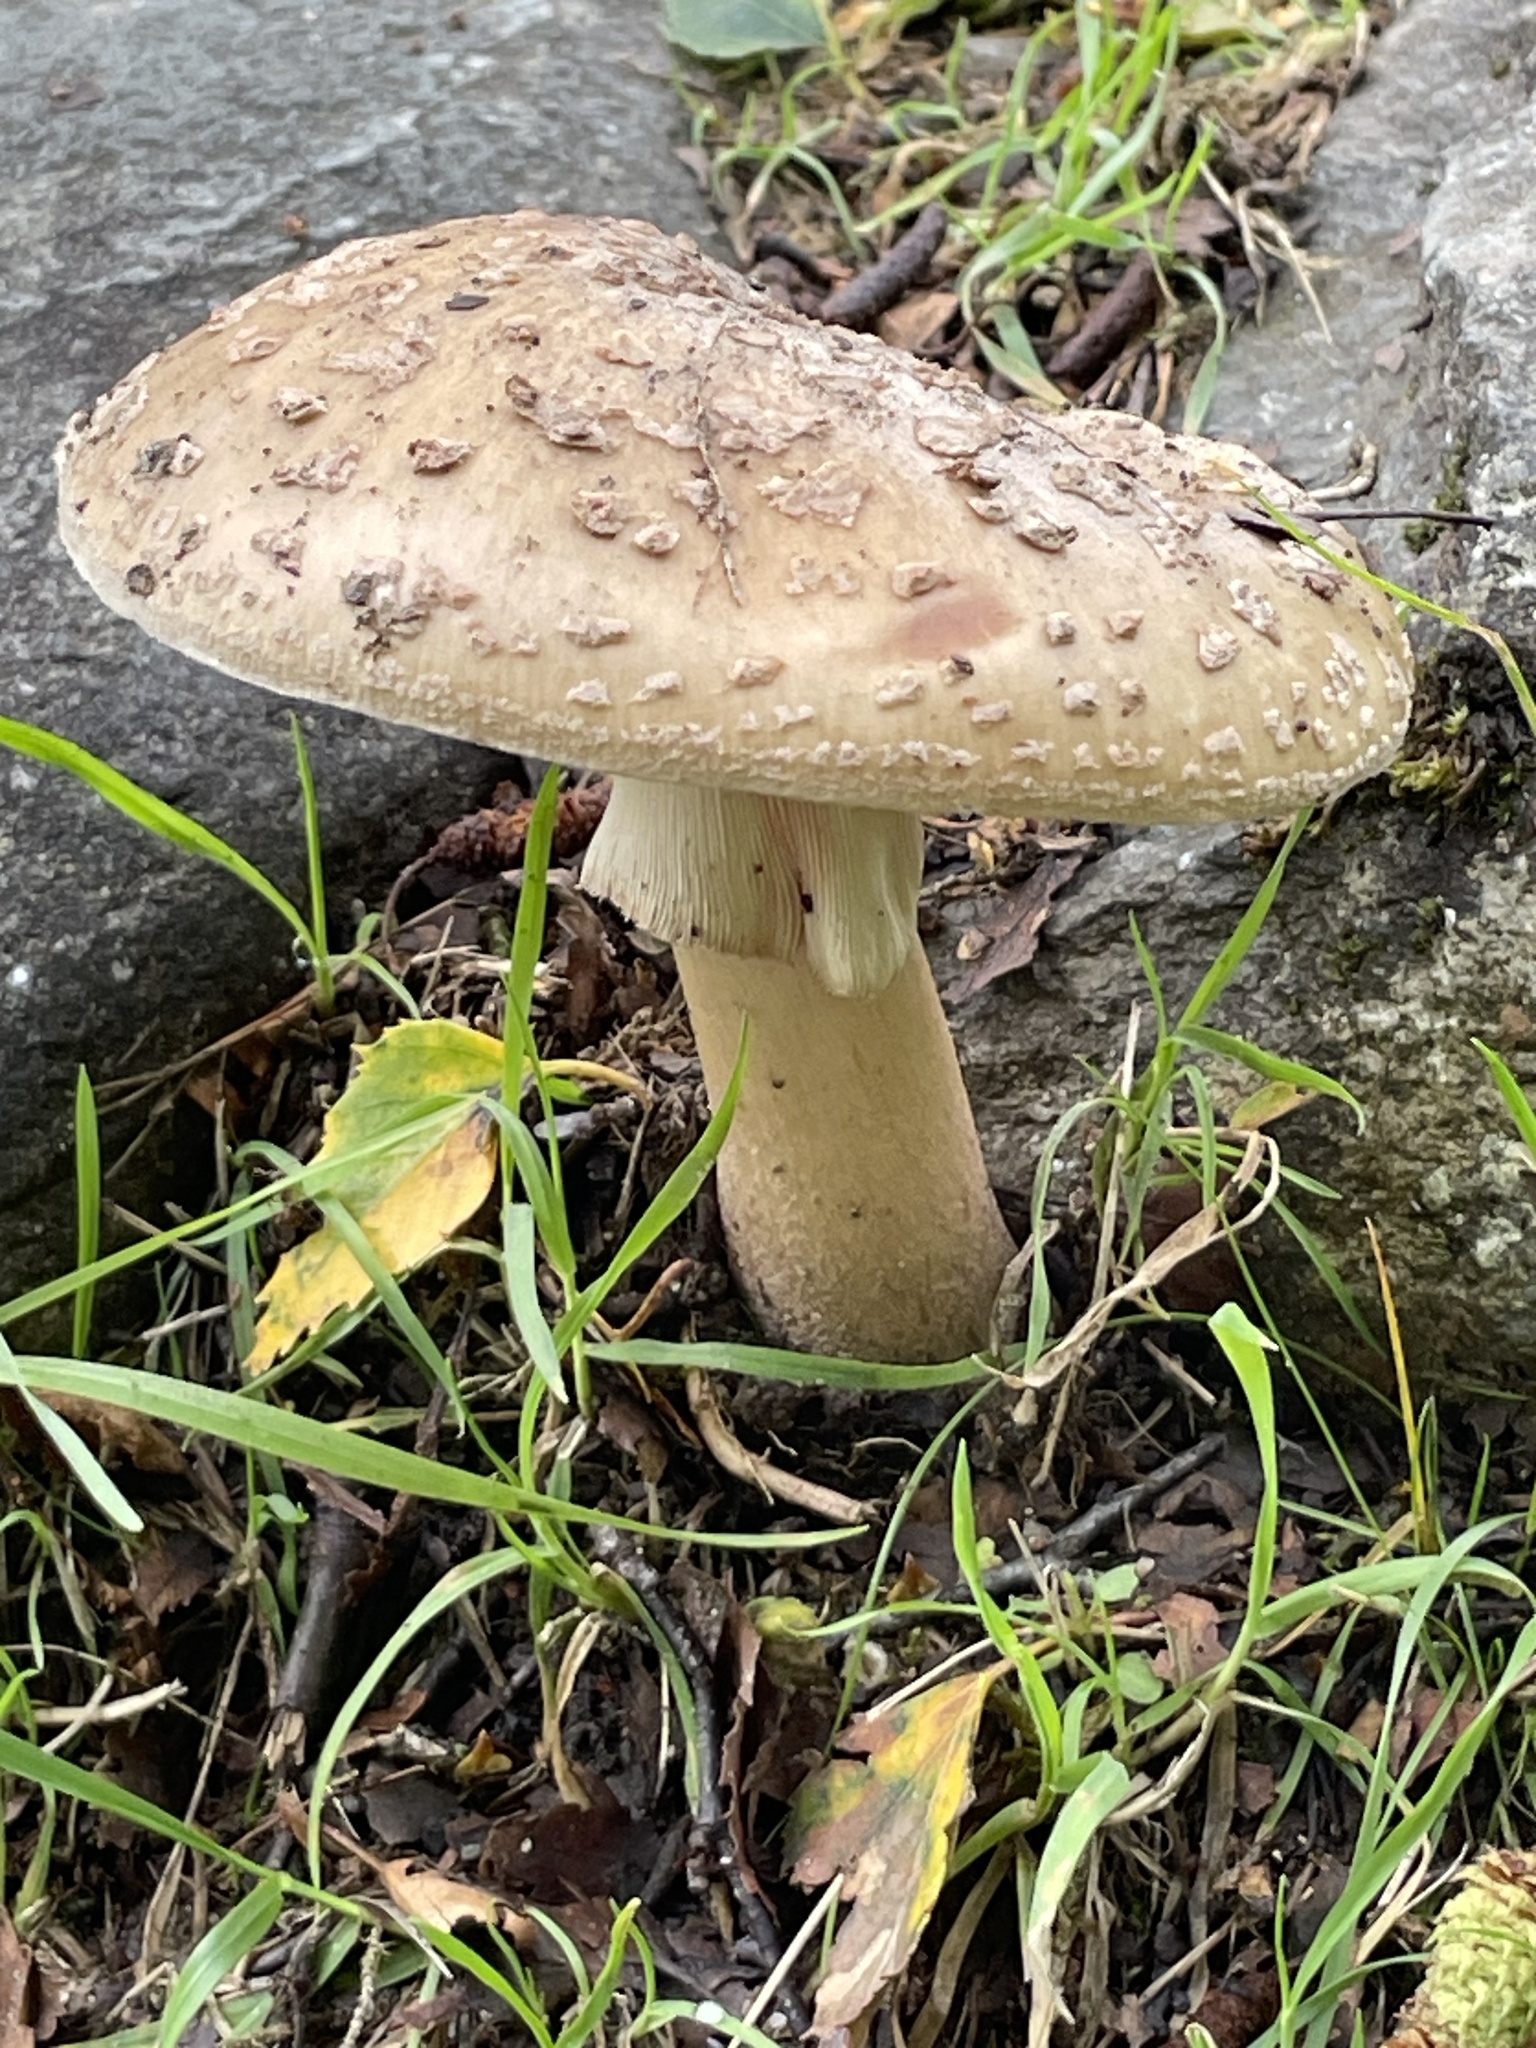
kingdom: Fungi
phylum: Basidiomycota
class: Agaricomycetes
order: Agaricales
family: Amanitaceae
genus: Amanita
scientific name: Amanita rubescens
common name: Blusher
